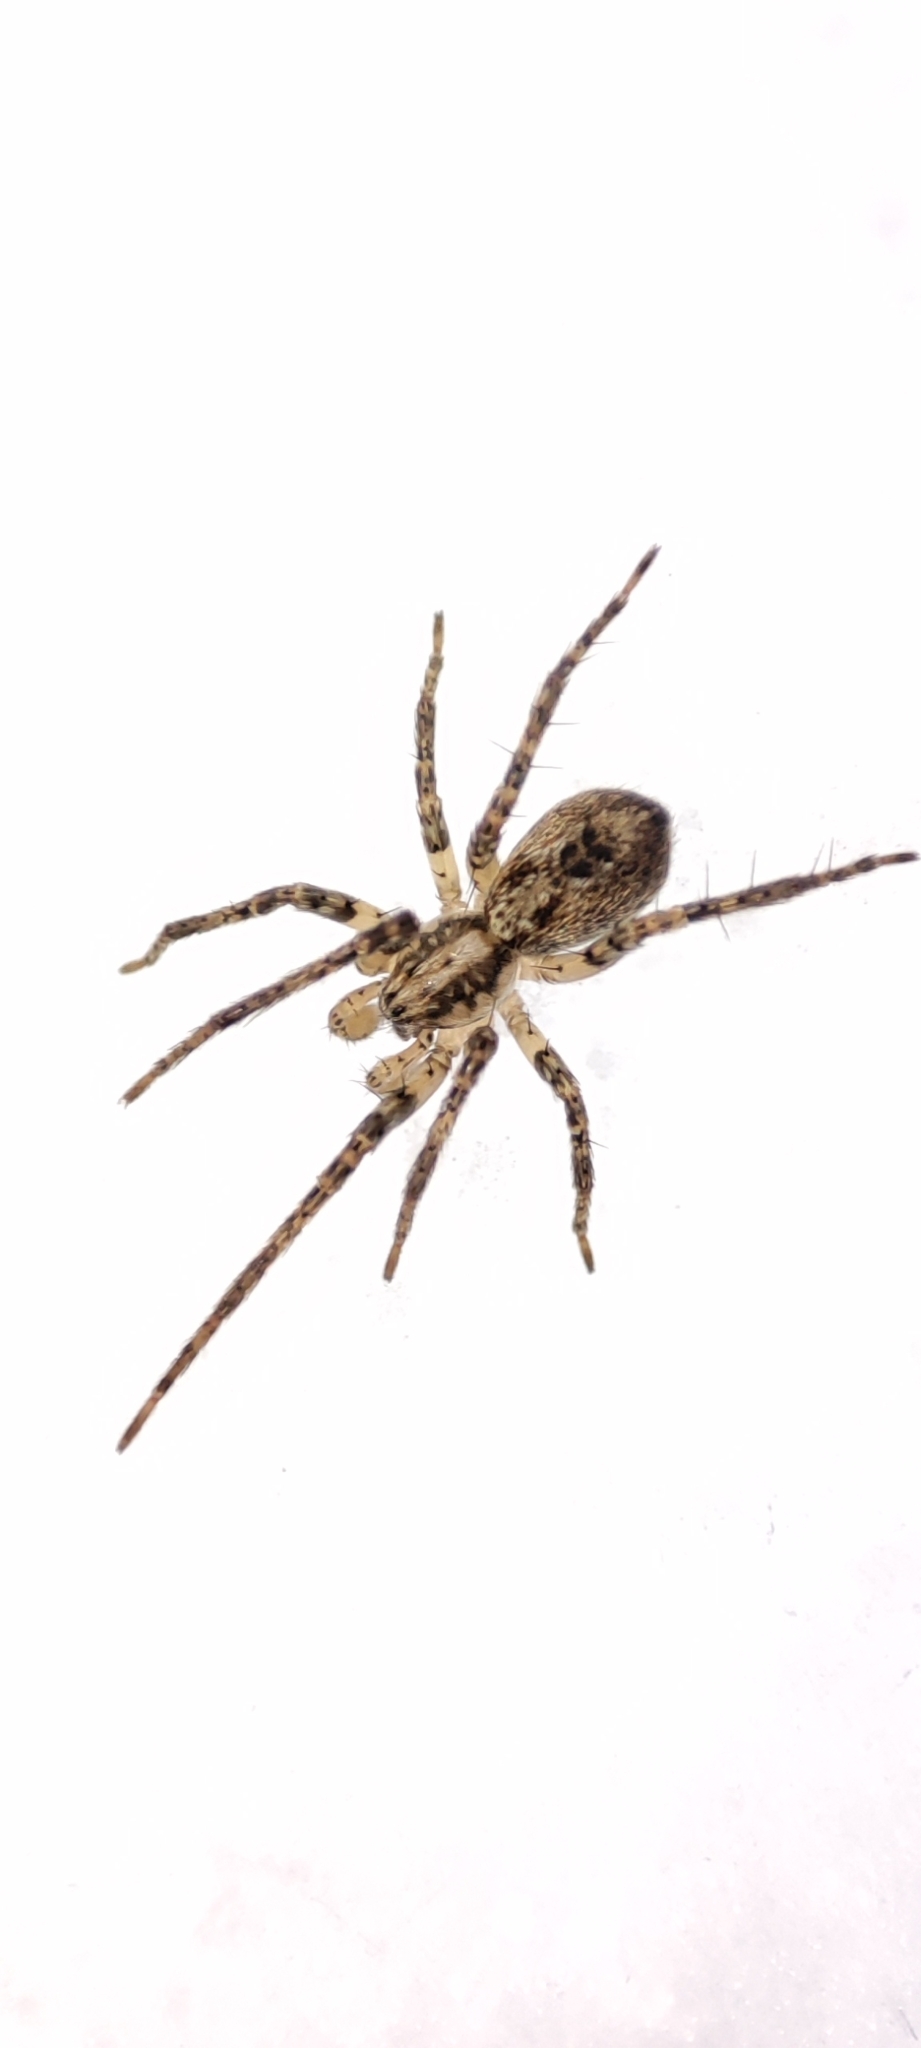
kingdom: Animalia
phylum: Arthropoda
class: Arachnida
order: Araneae
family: Anyphaenidae
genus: Anyphaena
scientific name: Anyphaena accentuata
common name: Buzzing spider
